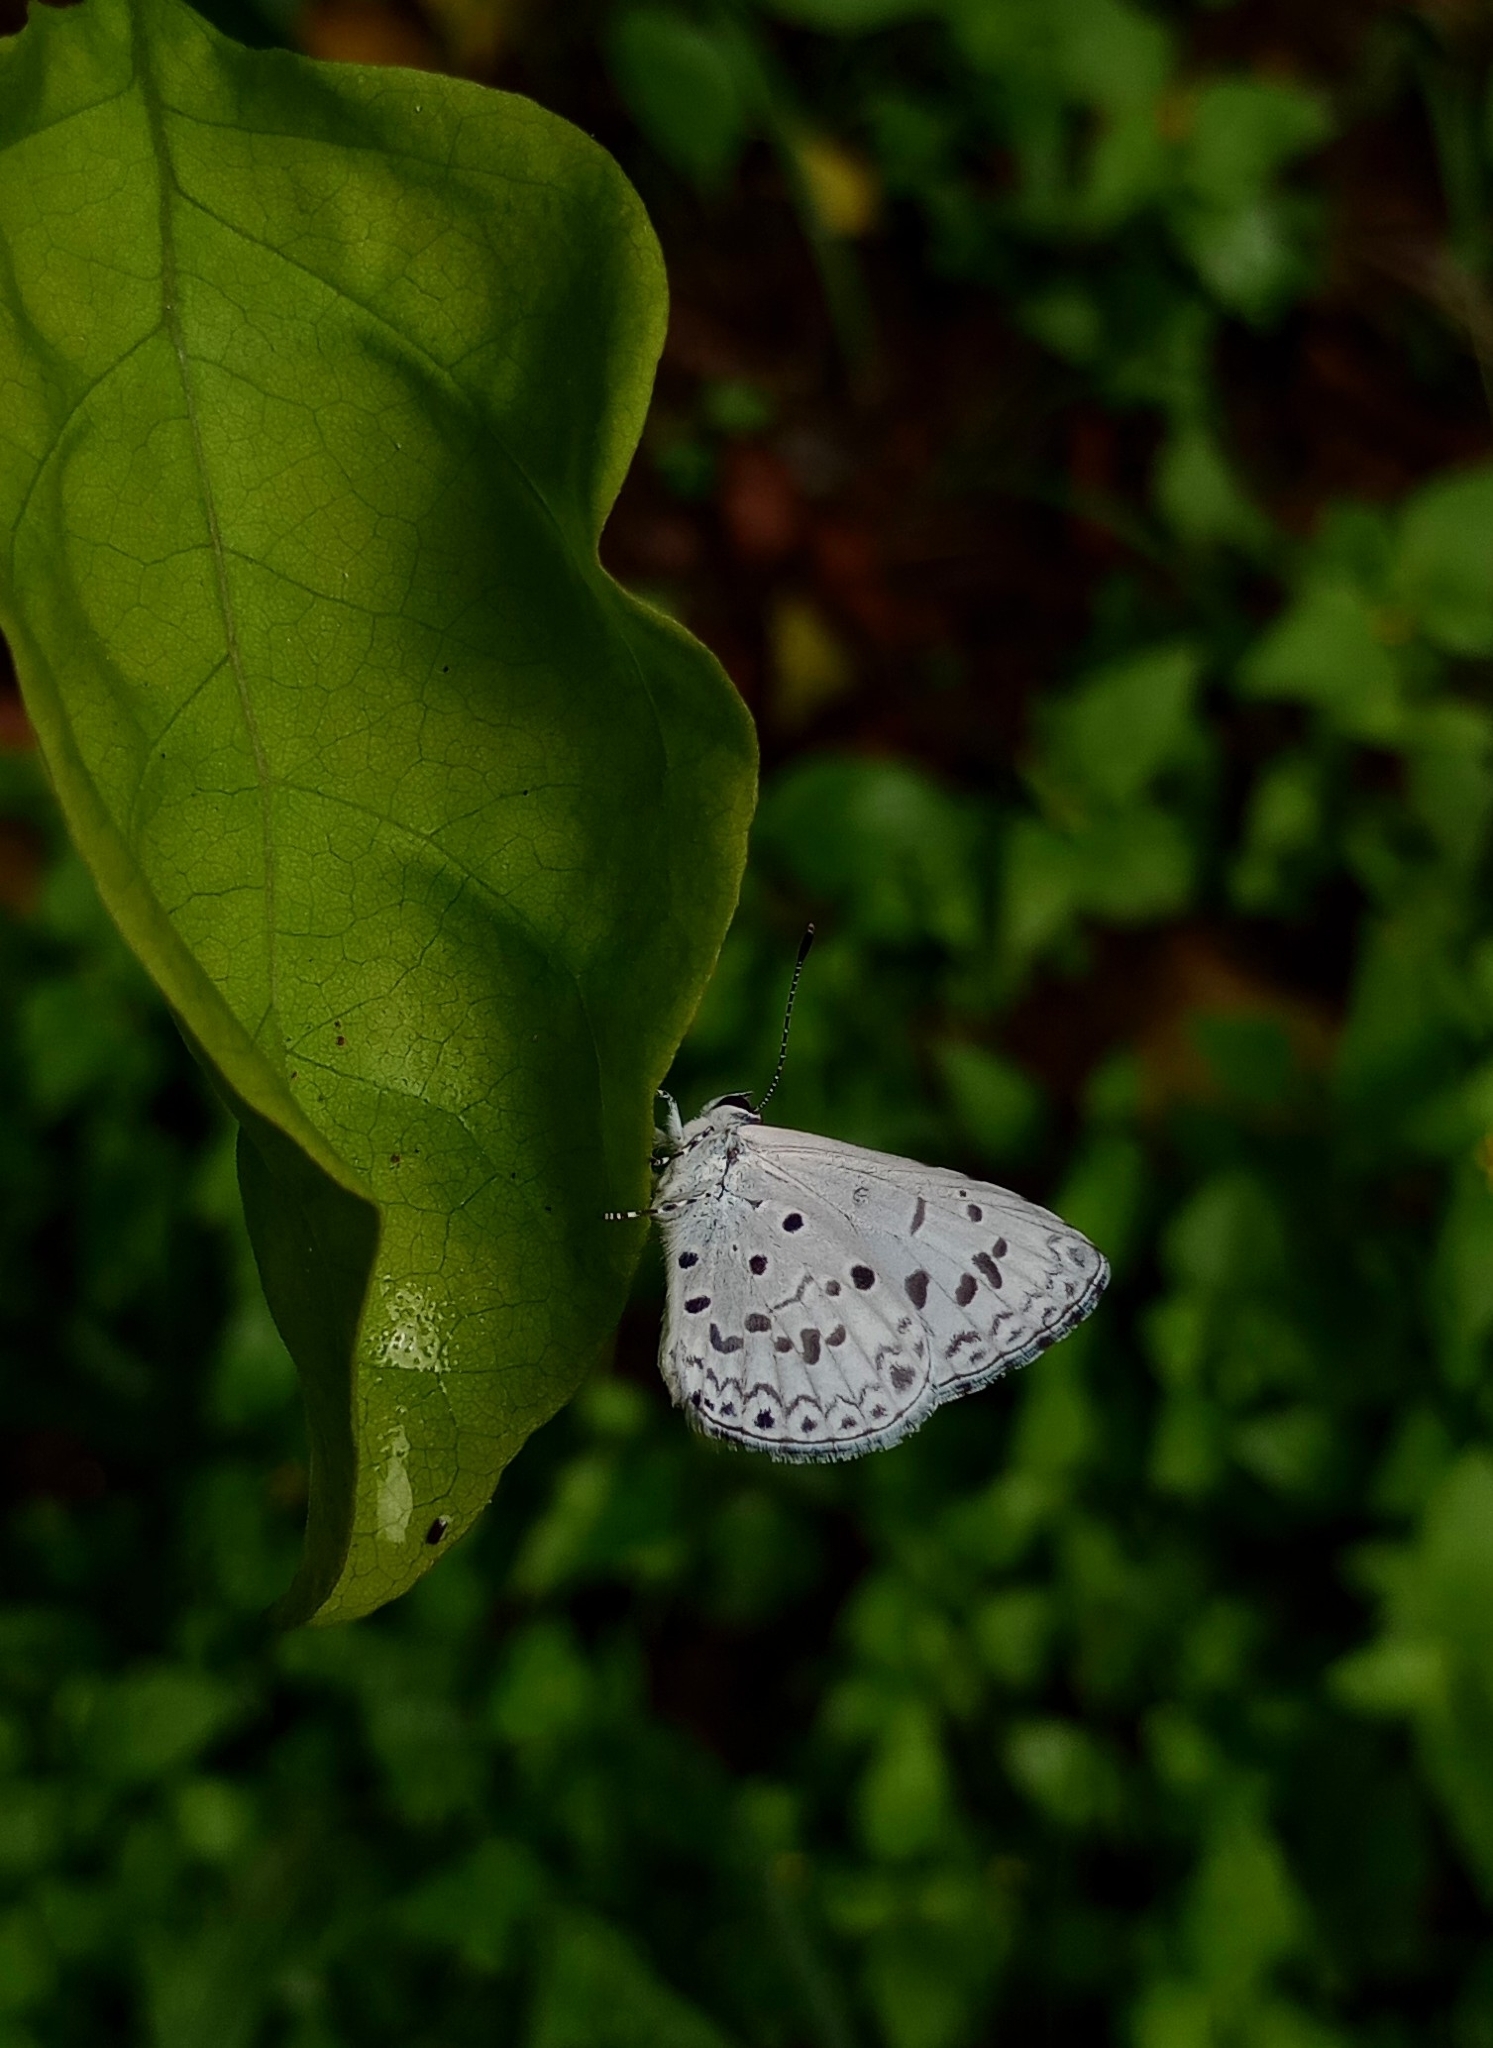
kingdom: Animalia
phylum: Arthropoda
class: Insecta
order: Lepidoptera
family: Lycaenidae
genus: Acytolepis
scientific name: Acytolepis puspa
